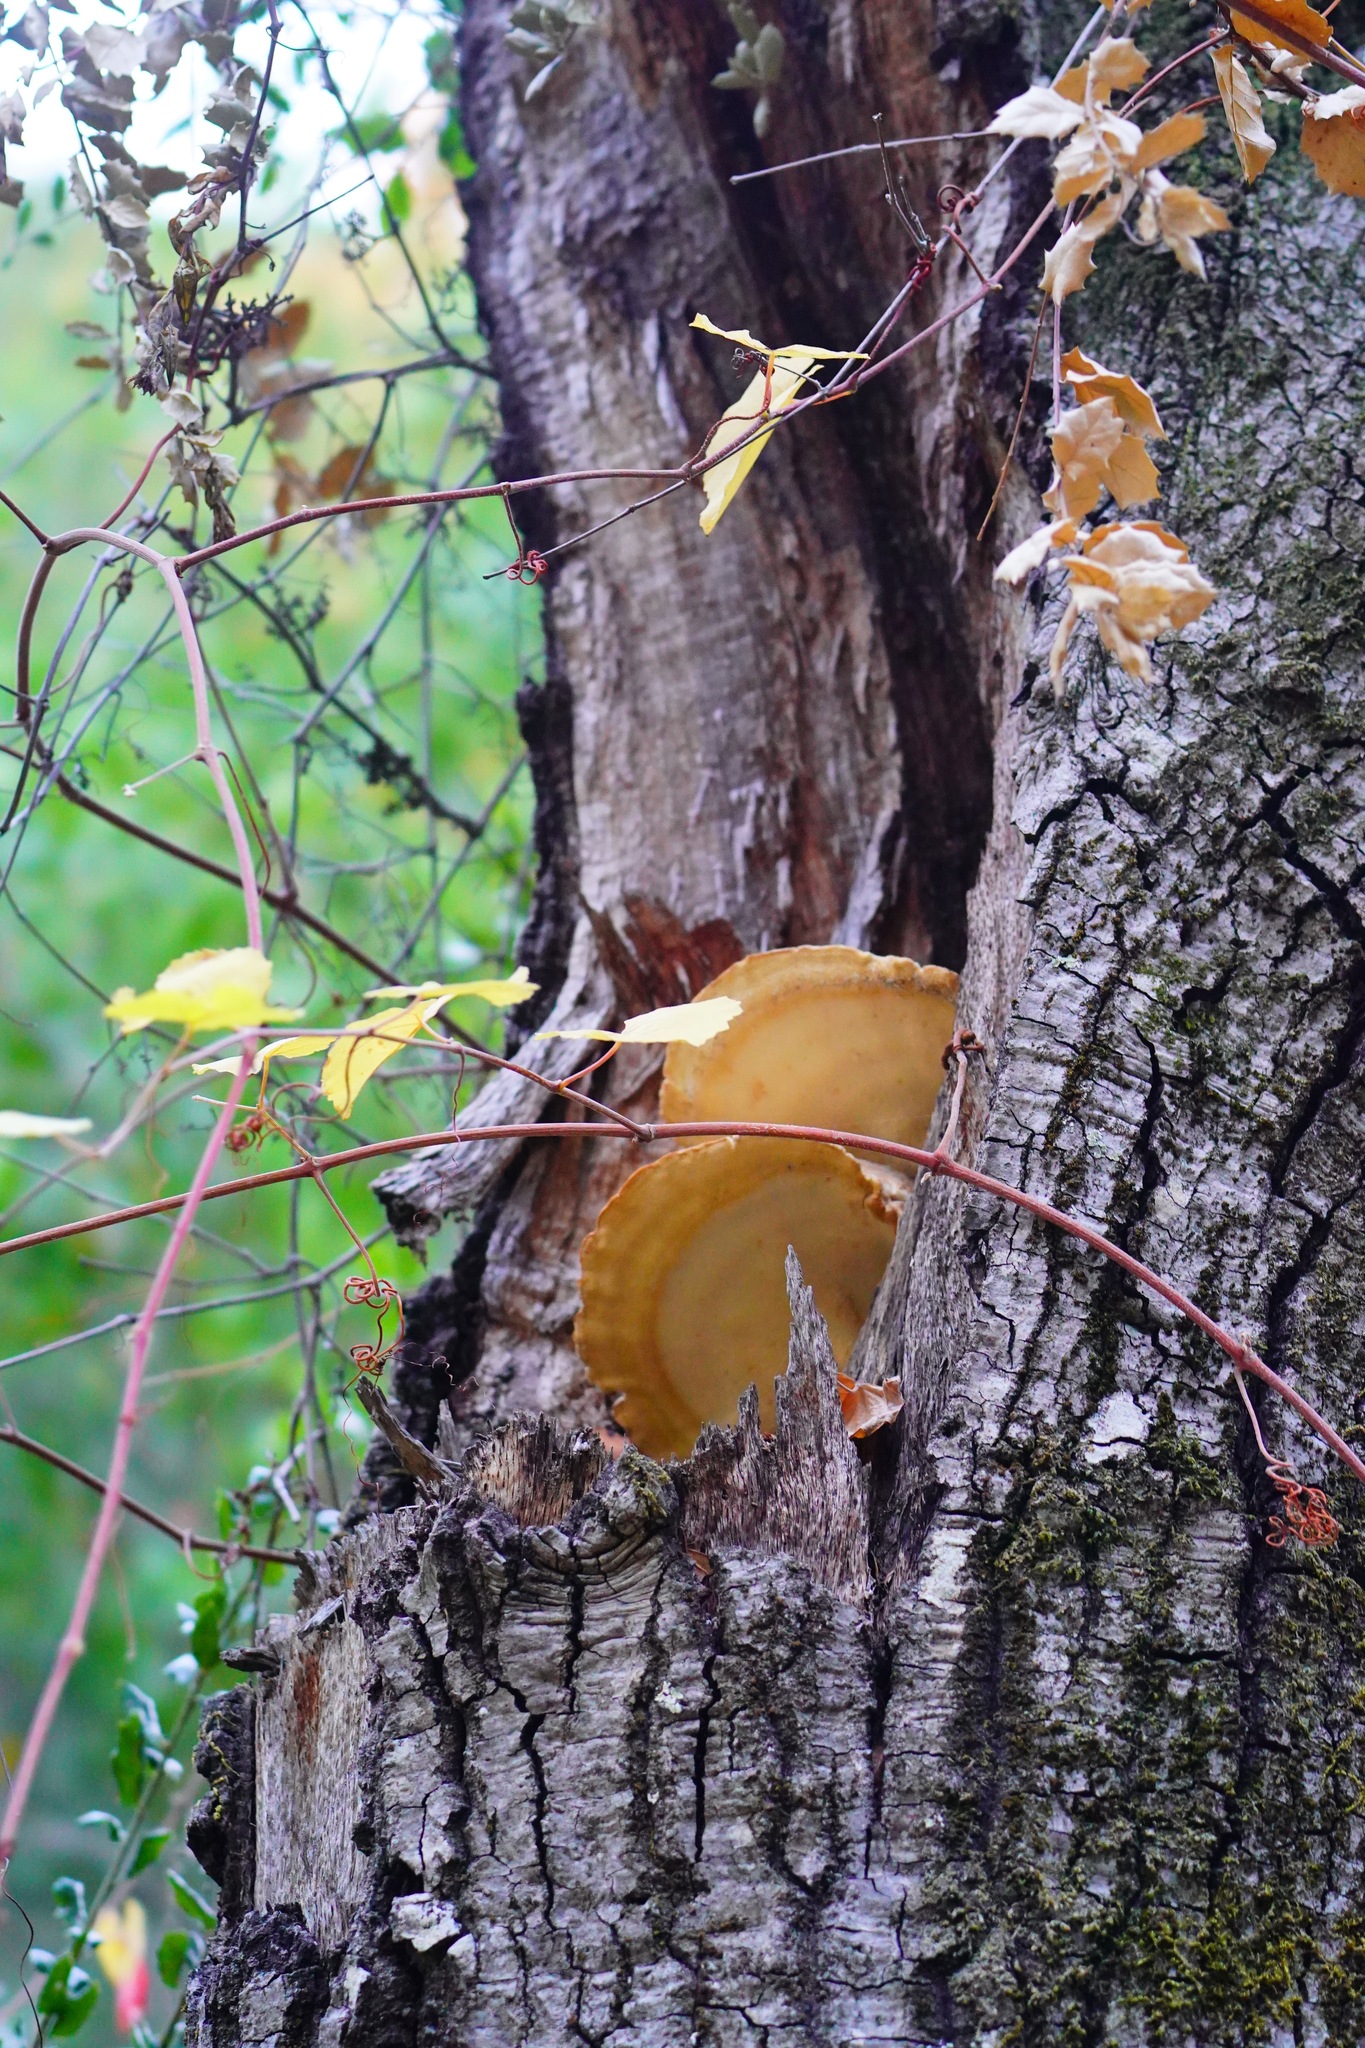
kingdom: Fungi
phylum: Basidiomycota
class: Agaricomycetes
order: Polyporales
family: Laetiporaceae
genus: Laetiporus
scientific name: Laetiporus gilbertsonii
